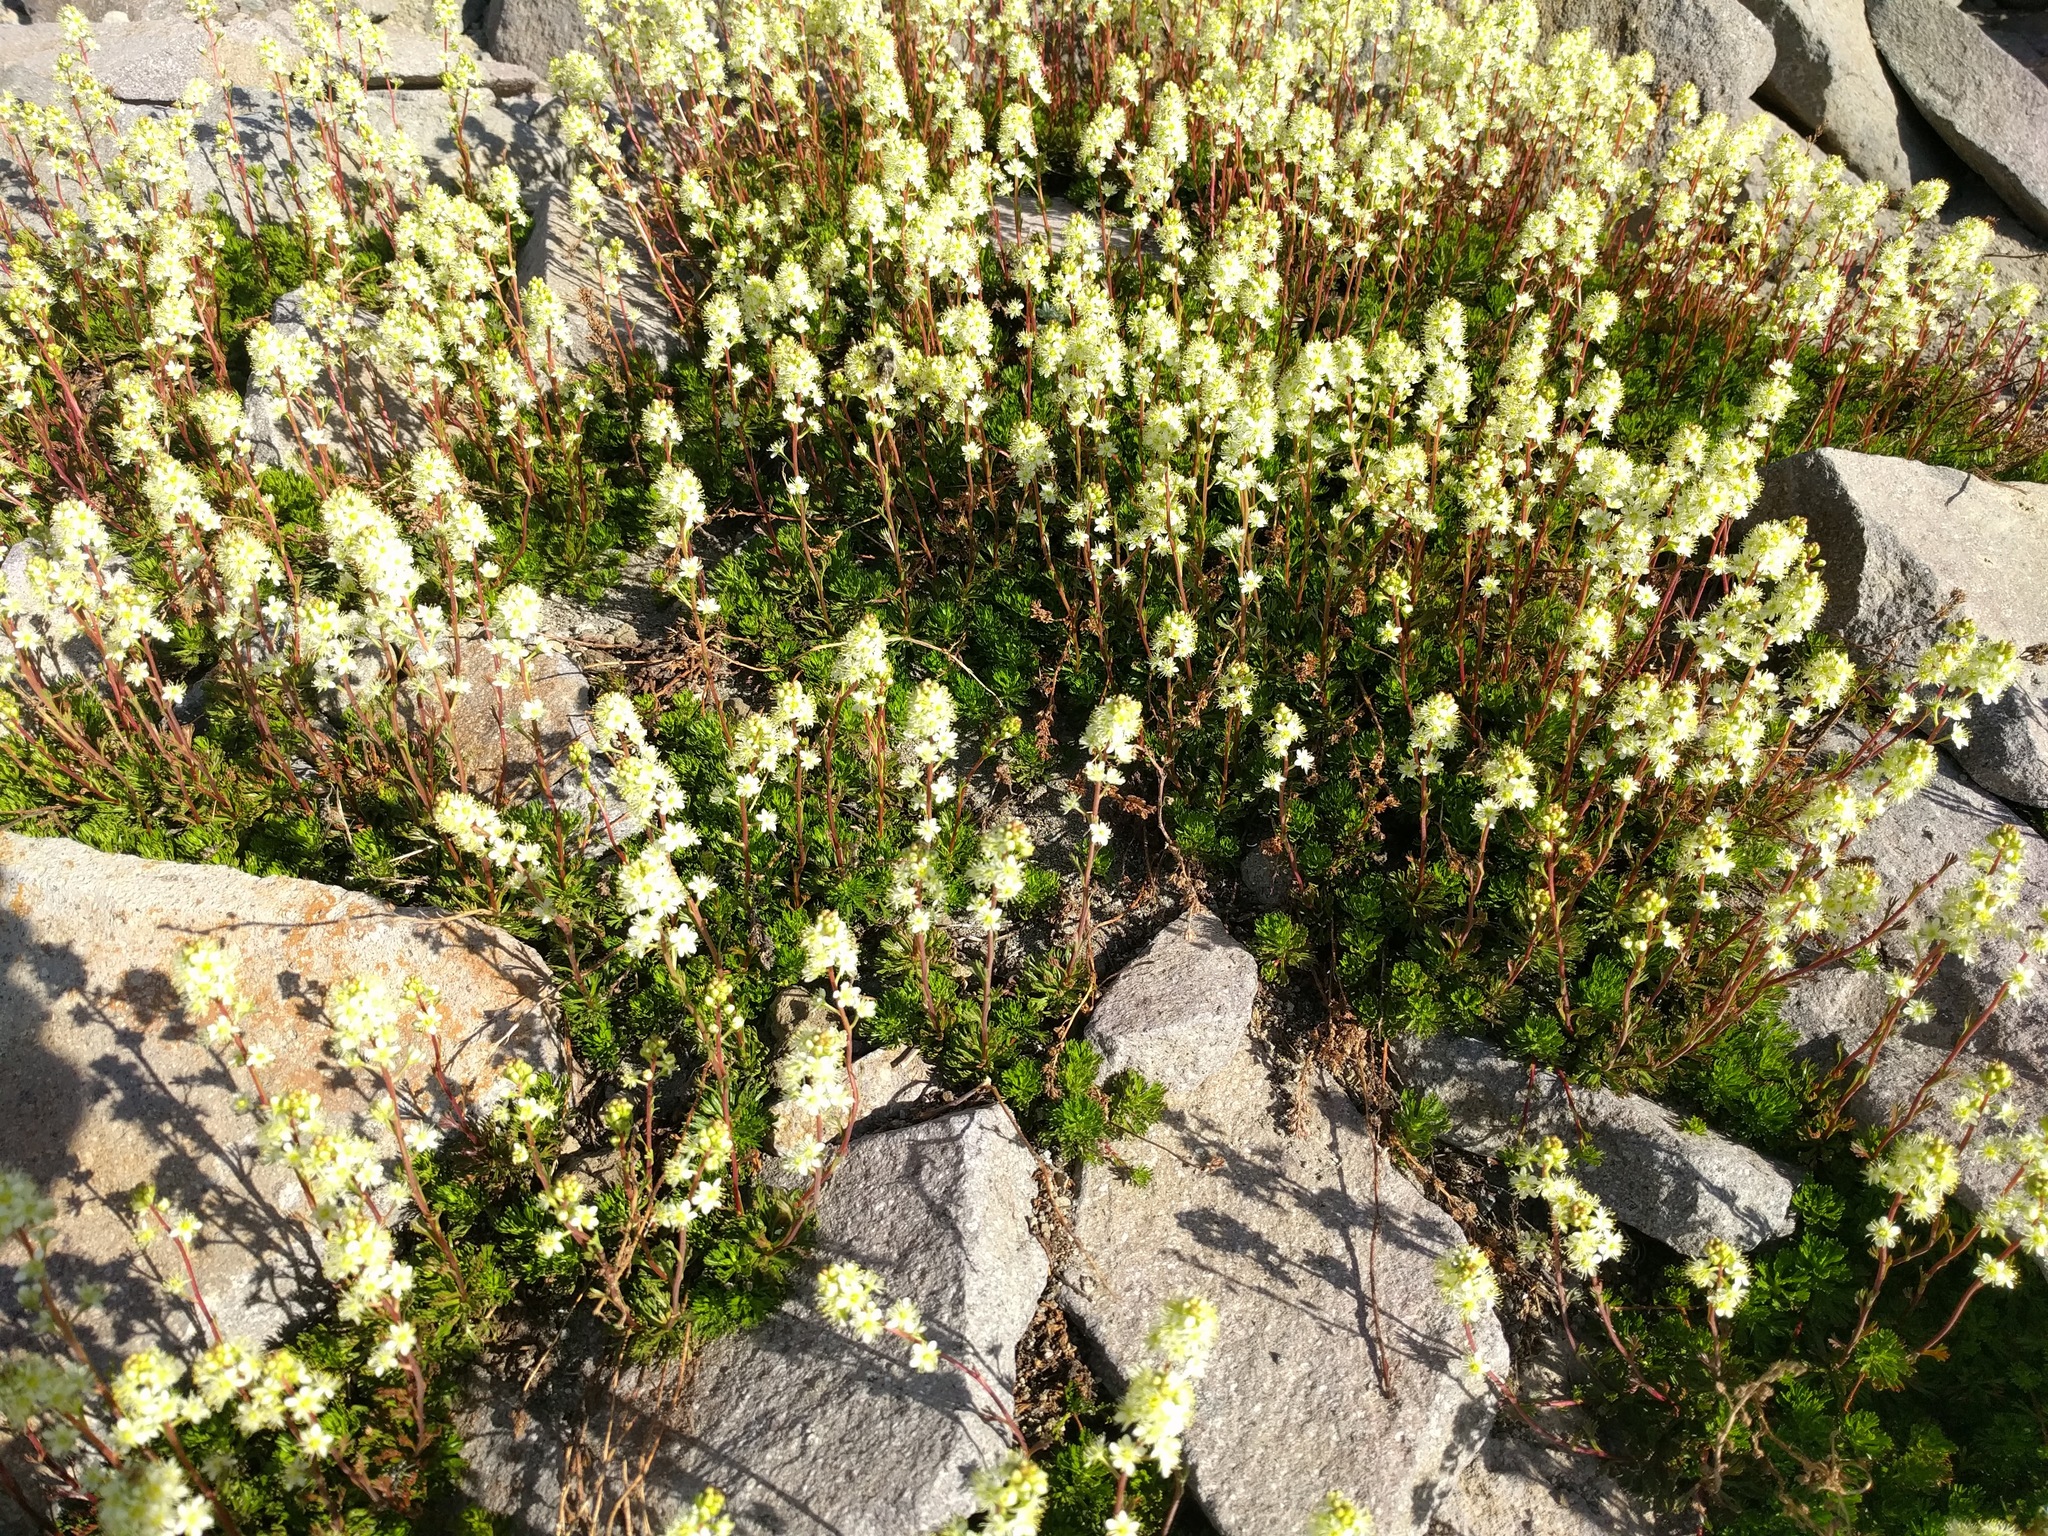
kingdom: Plantae
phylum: Tracheophyta
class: Magnoliopsida
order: Rosales
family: Rosaceae
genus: Luetkea
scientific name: Luetkea pectinata
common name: Partridgefoot
